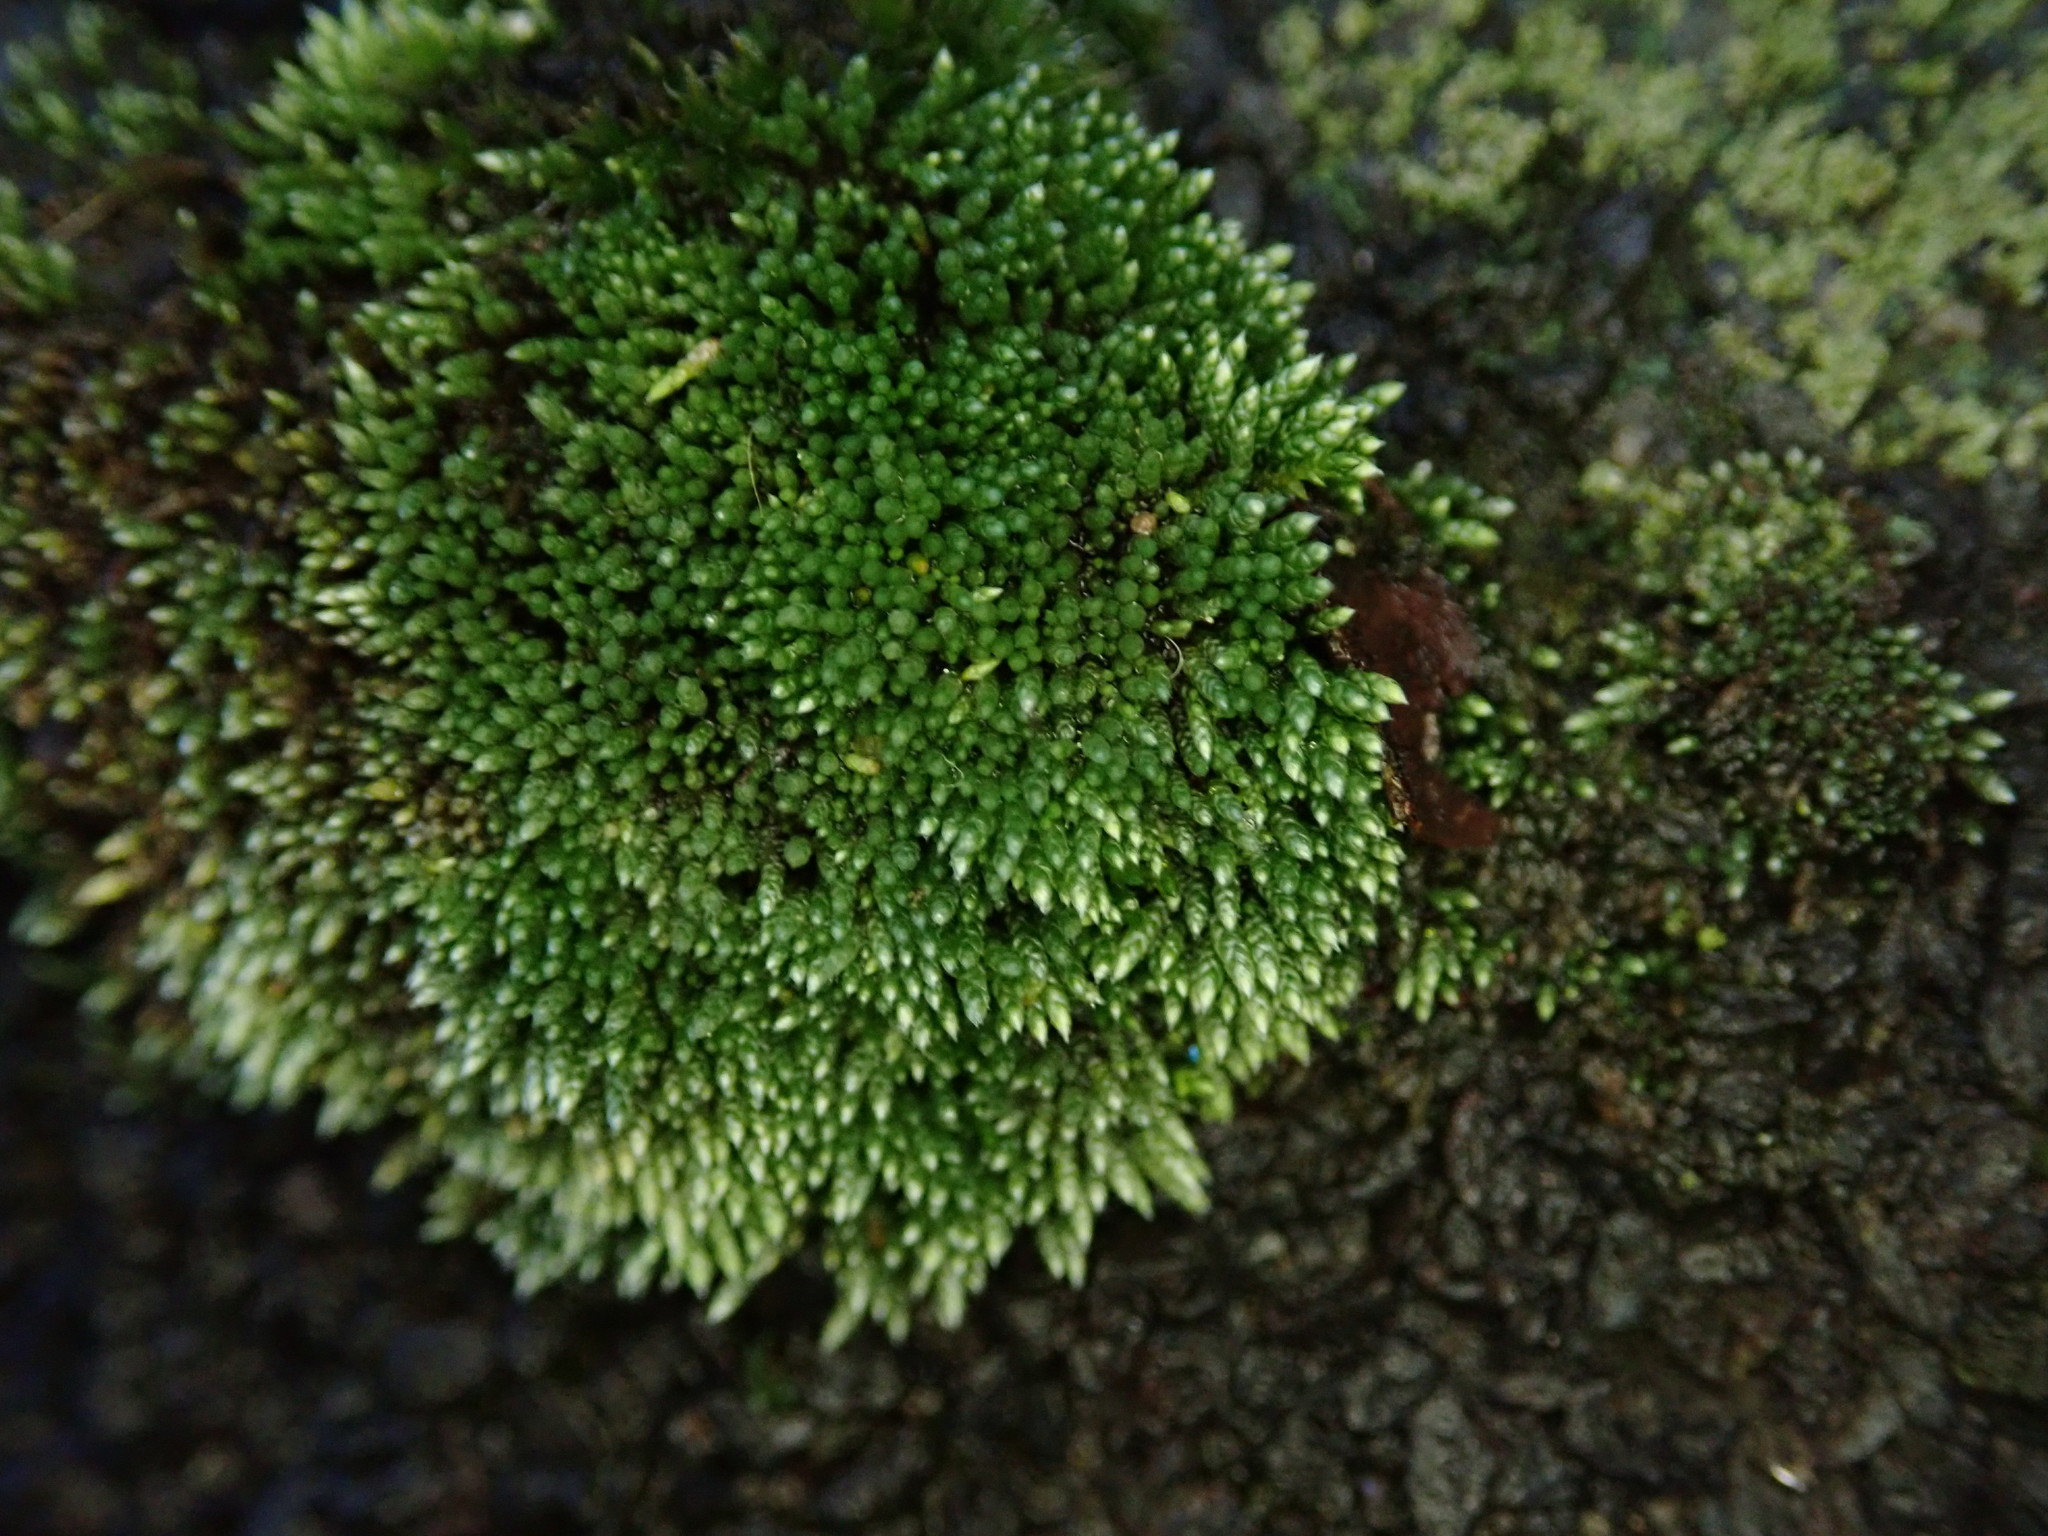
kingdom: Plantae
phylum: Bryophyta
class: Bryopsida
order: Bryales
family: Bryaceae
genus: Bryum
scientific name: Bryum argenteum
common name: Silver-moss
